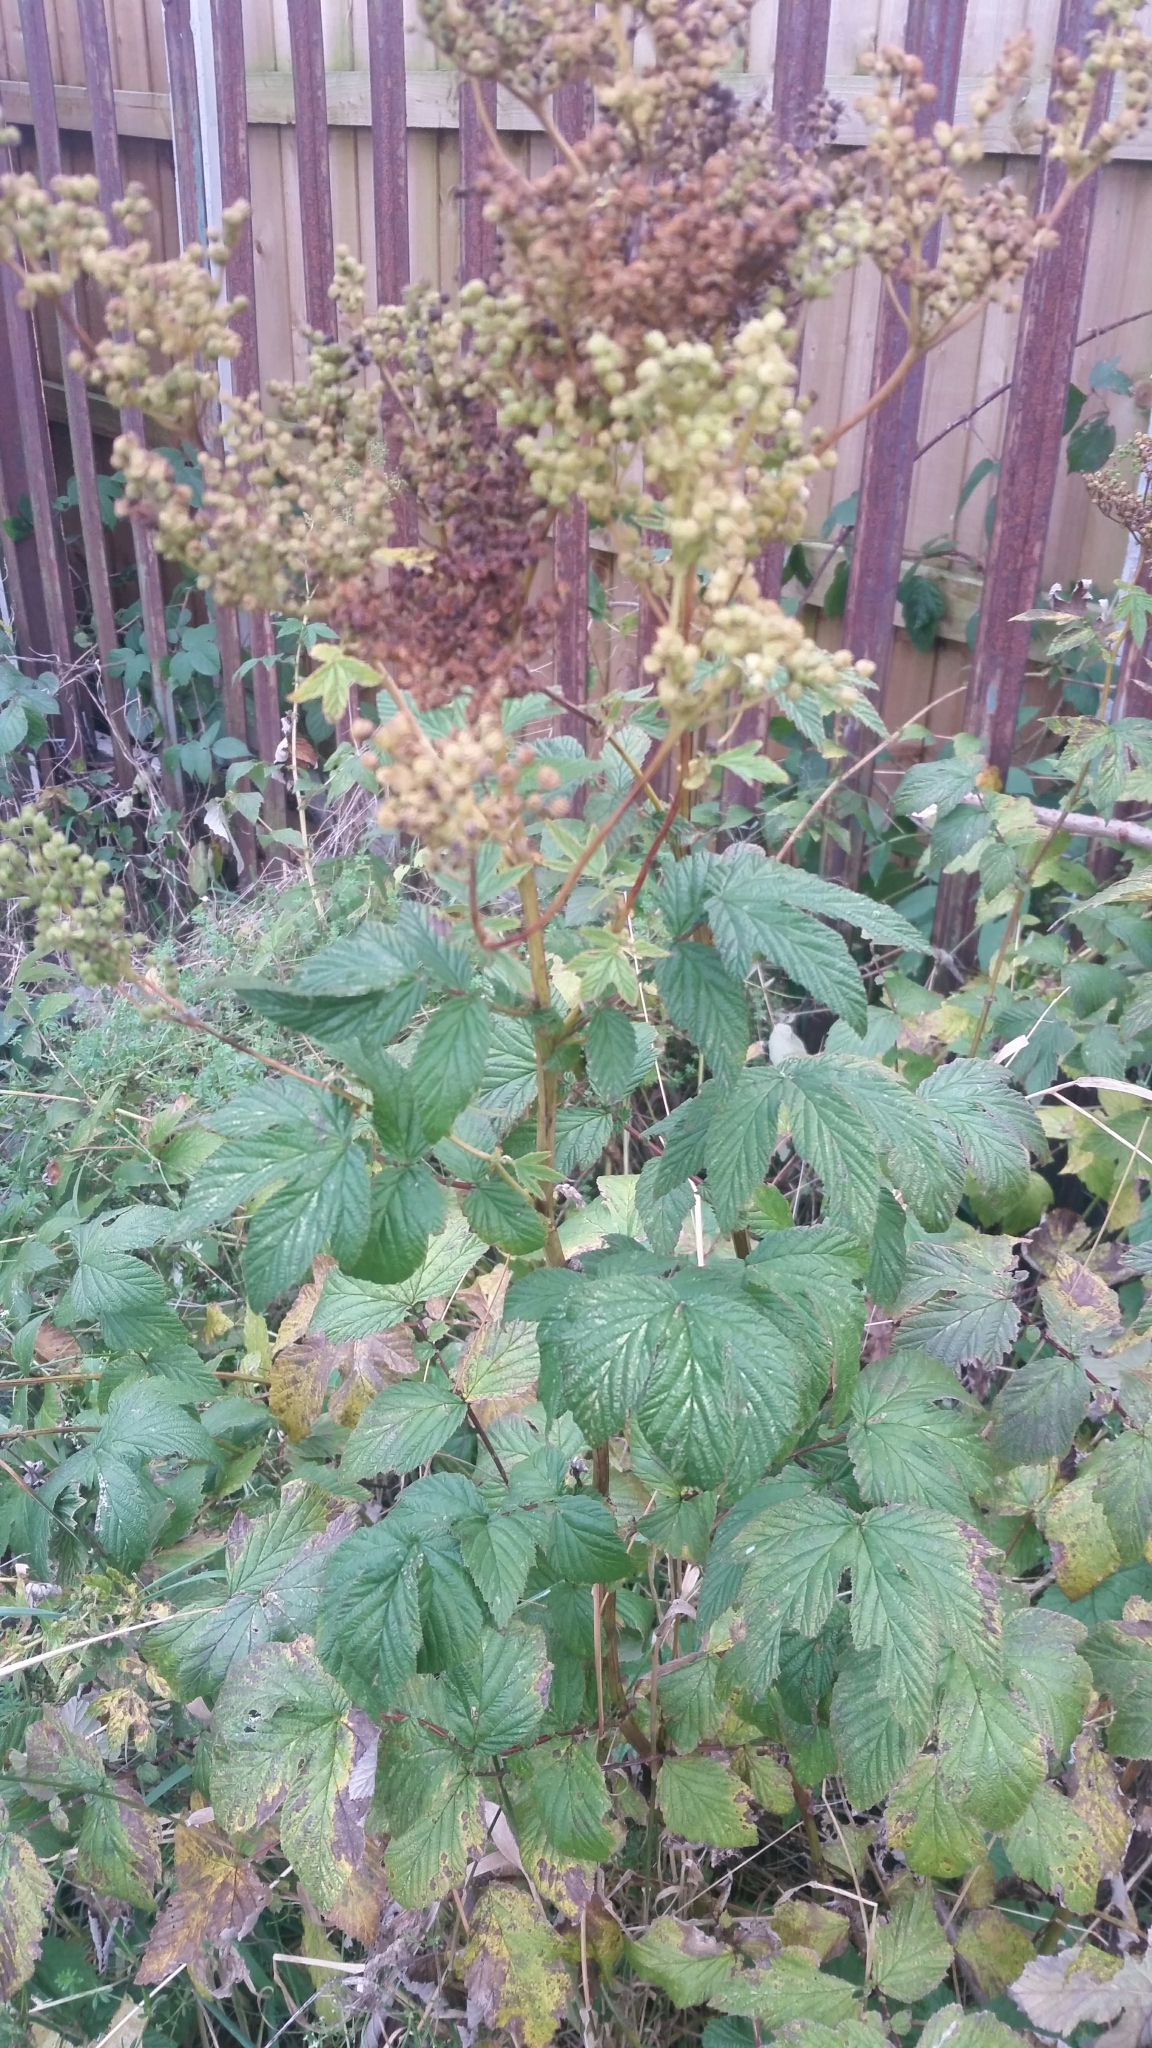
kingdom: Plantae
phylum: Tracheophyta
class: Magnoliopsida
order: Rosales
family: Rosaceae
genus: Filipendula
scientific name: Filipendula ulmaria
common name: Meadowsweet
